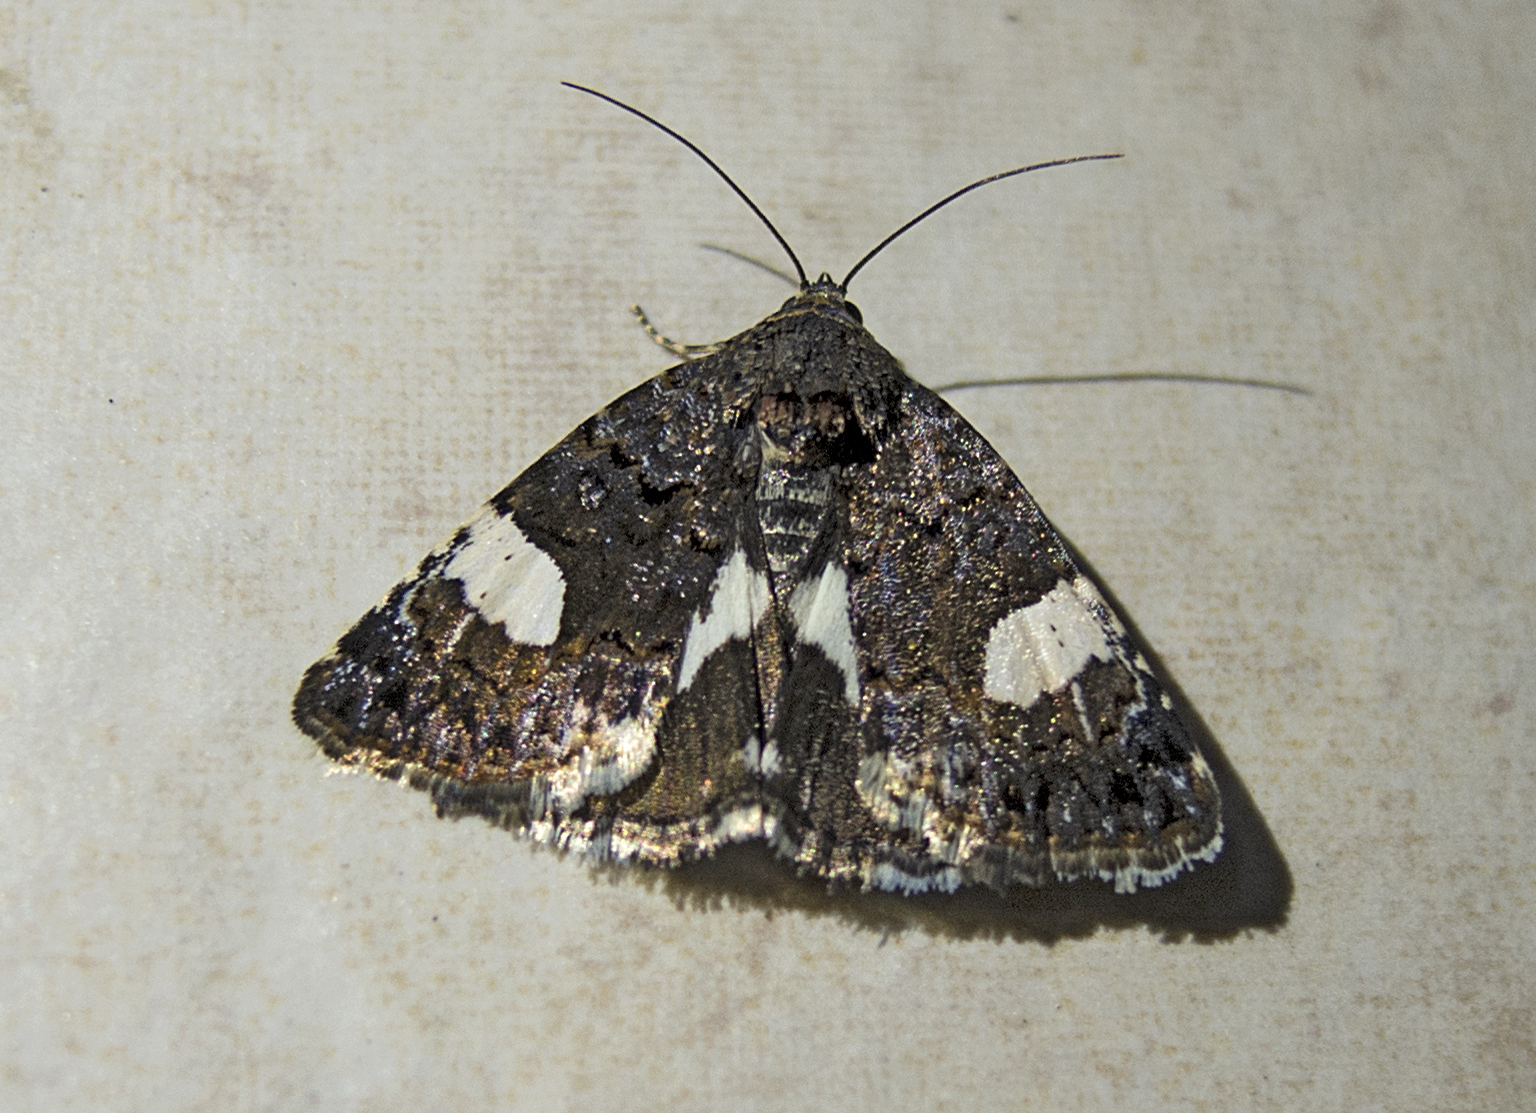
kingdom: Animalia
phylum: Arthropoda
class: Insecta
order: Lepidoptera
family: Erebidae
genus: Tyta
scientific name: Tyta luctuosa
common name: Four-spotted
